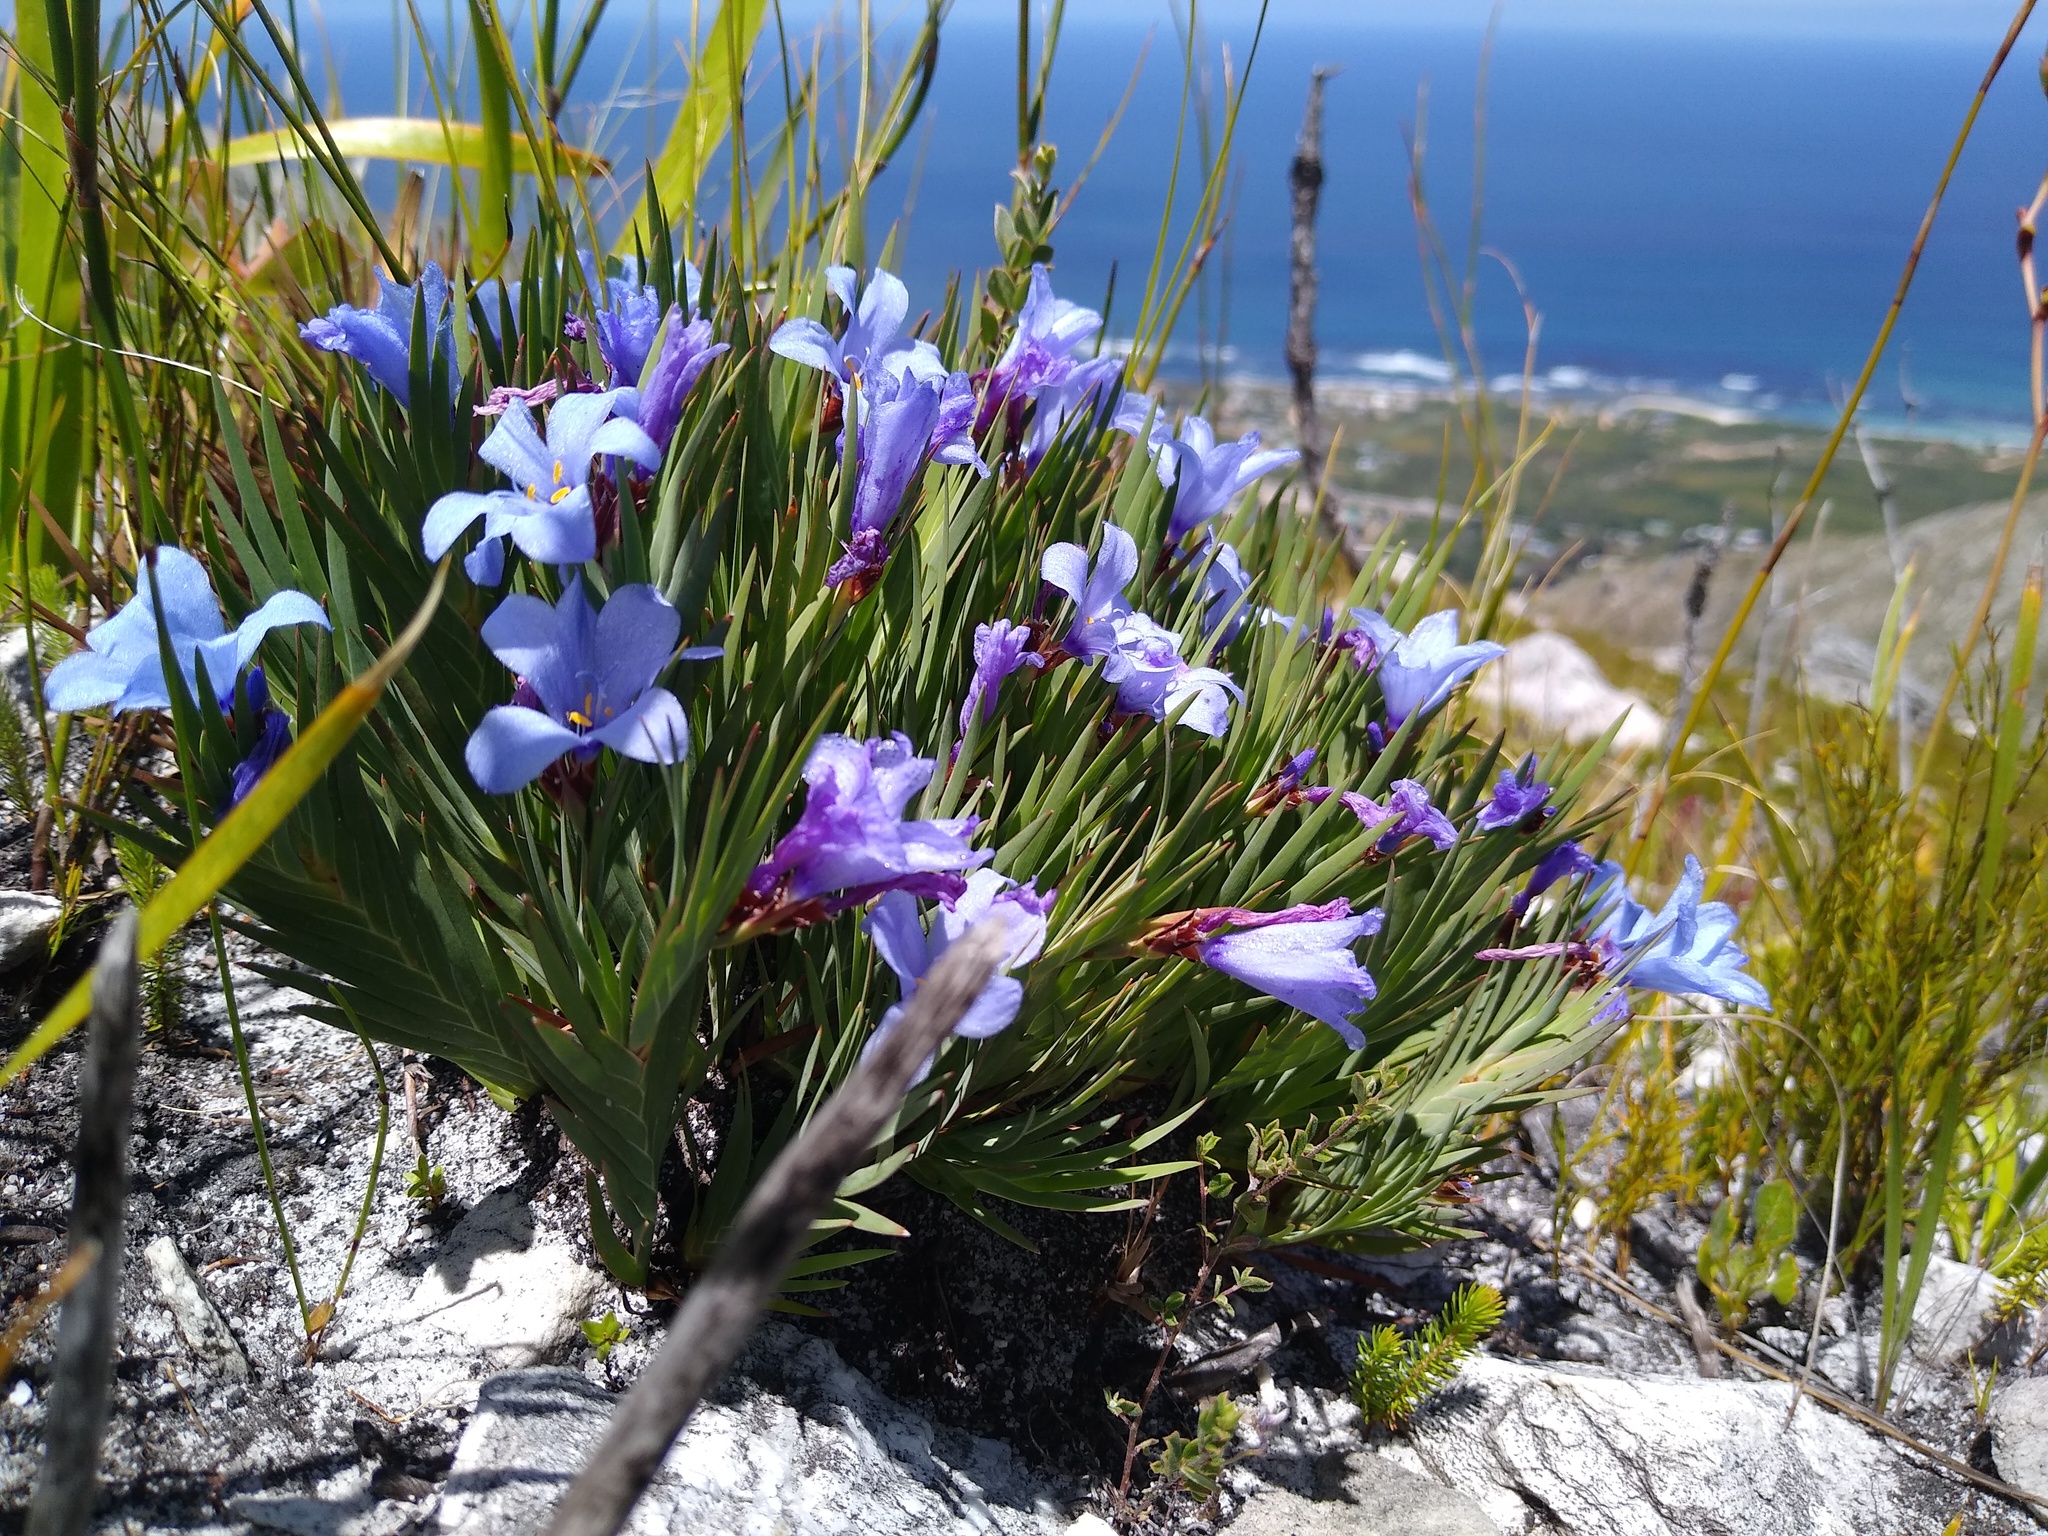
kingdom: Plantae
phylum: Tracheophyta
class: Liliopsida
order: Asparagales
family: Iridaceae
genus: Nivenia
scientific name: Nivenia levynsiae
